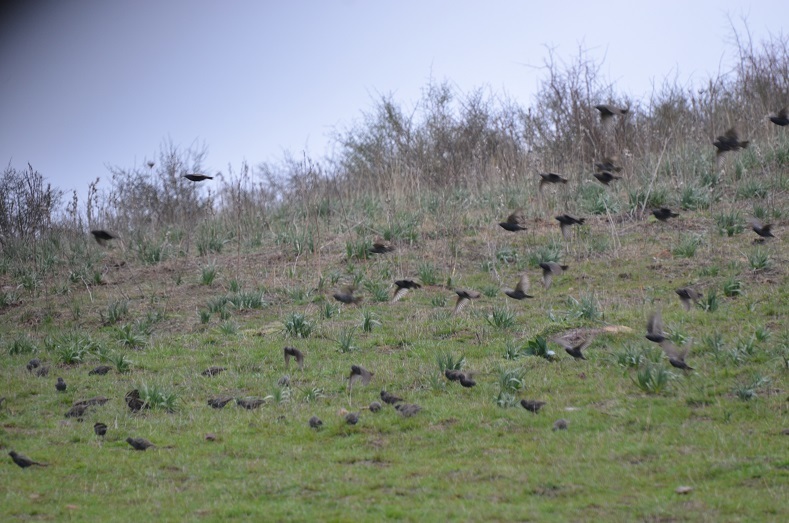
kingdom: Animalia
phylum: Chordata
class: Aves
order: Passeriformes
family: Sturnidae
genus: Sturnus
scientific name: Sturnus vulgaris
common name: Common starling
